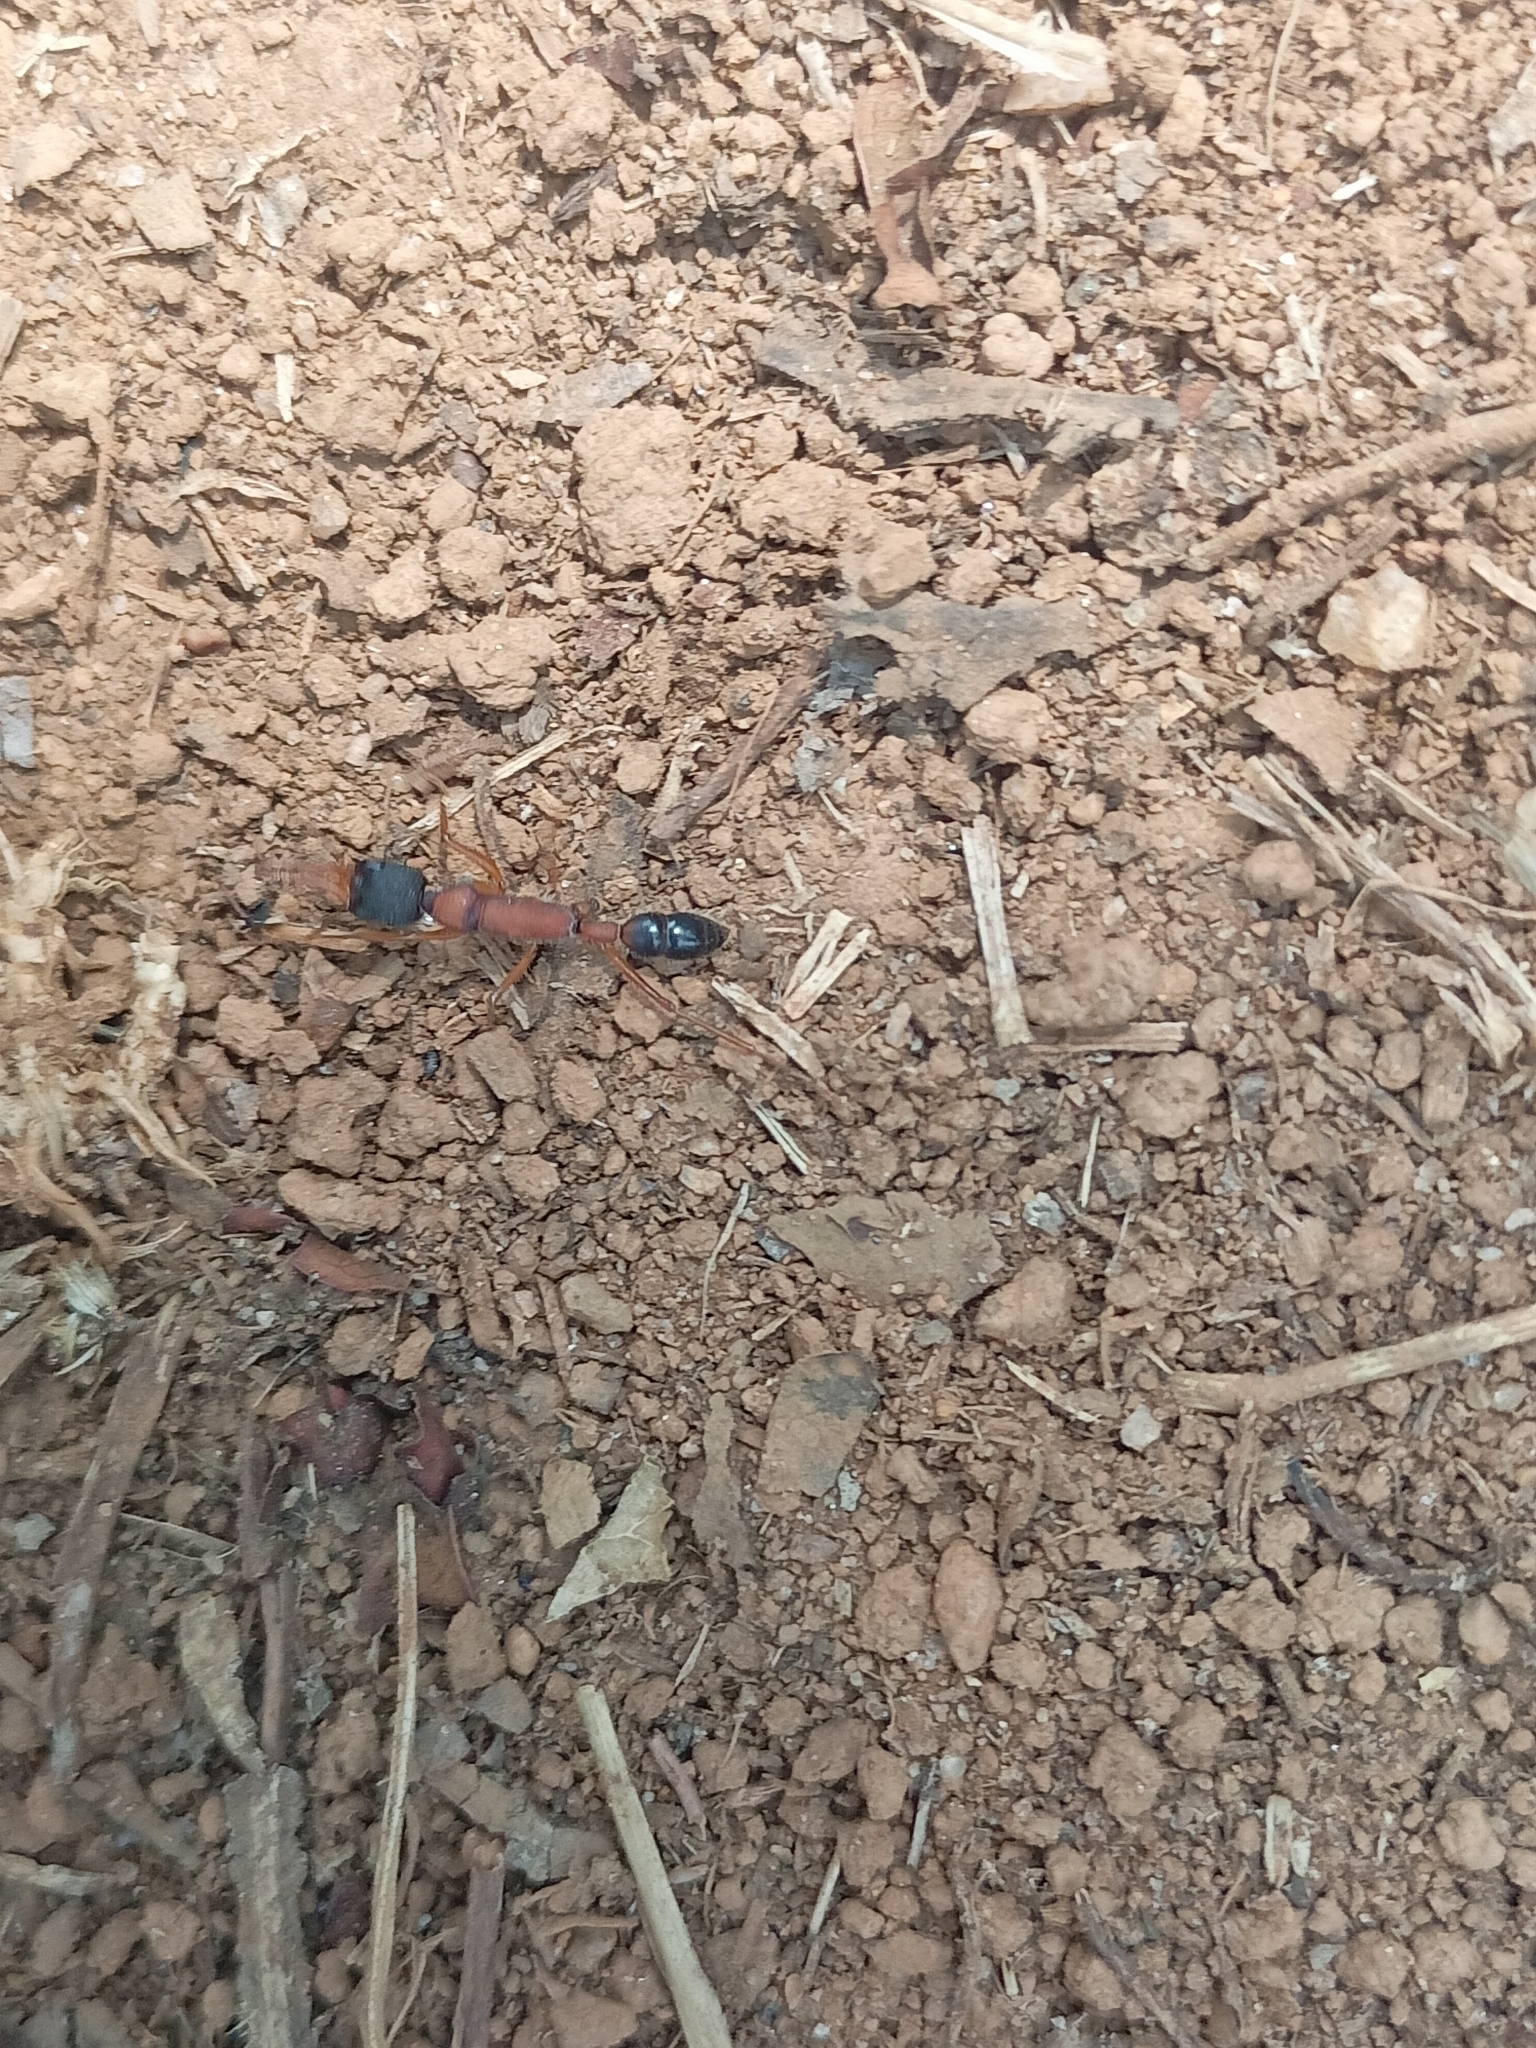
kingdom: Animalia
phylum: Arthropoda
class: Insecta
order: Hymenoptera
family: Formicidae
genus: Harpegnathos
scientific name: Harpegnathos saltator
